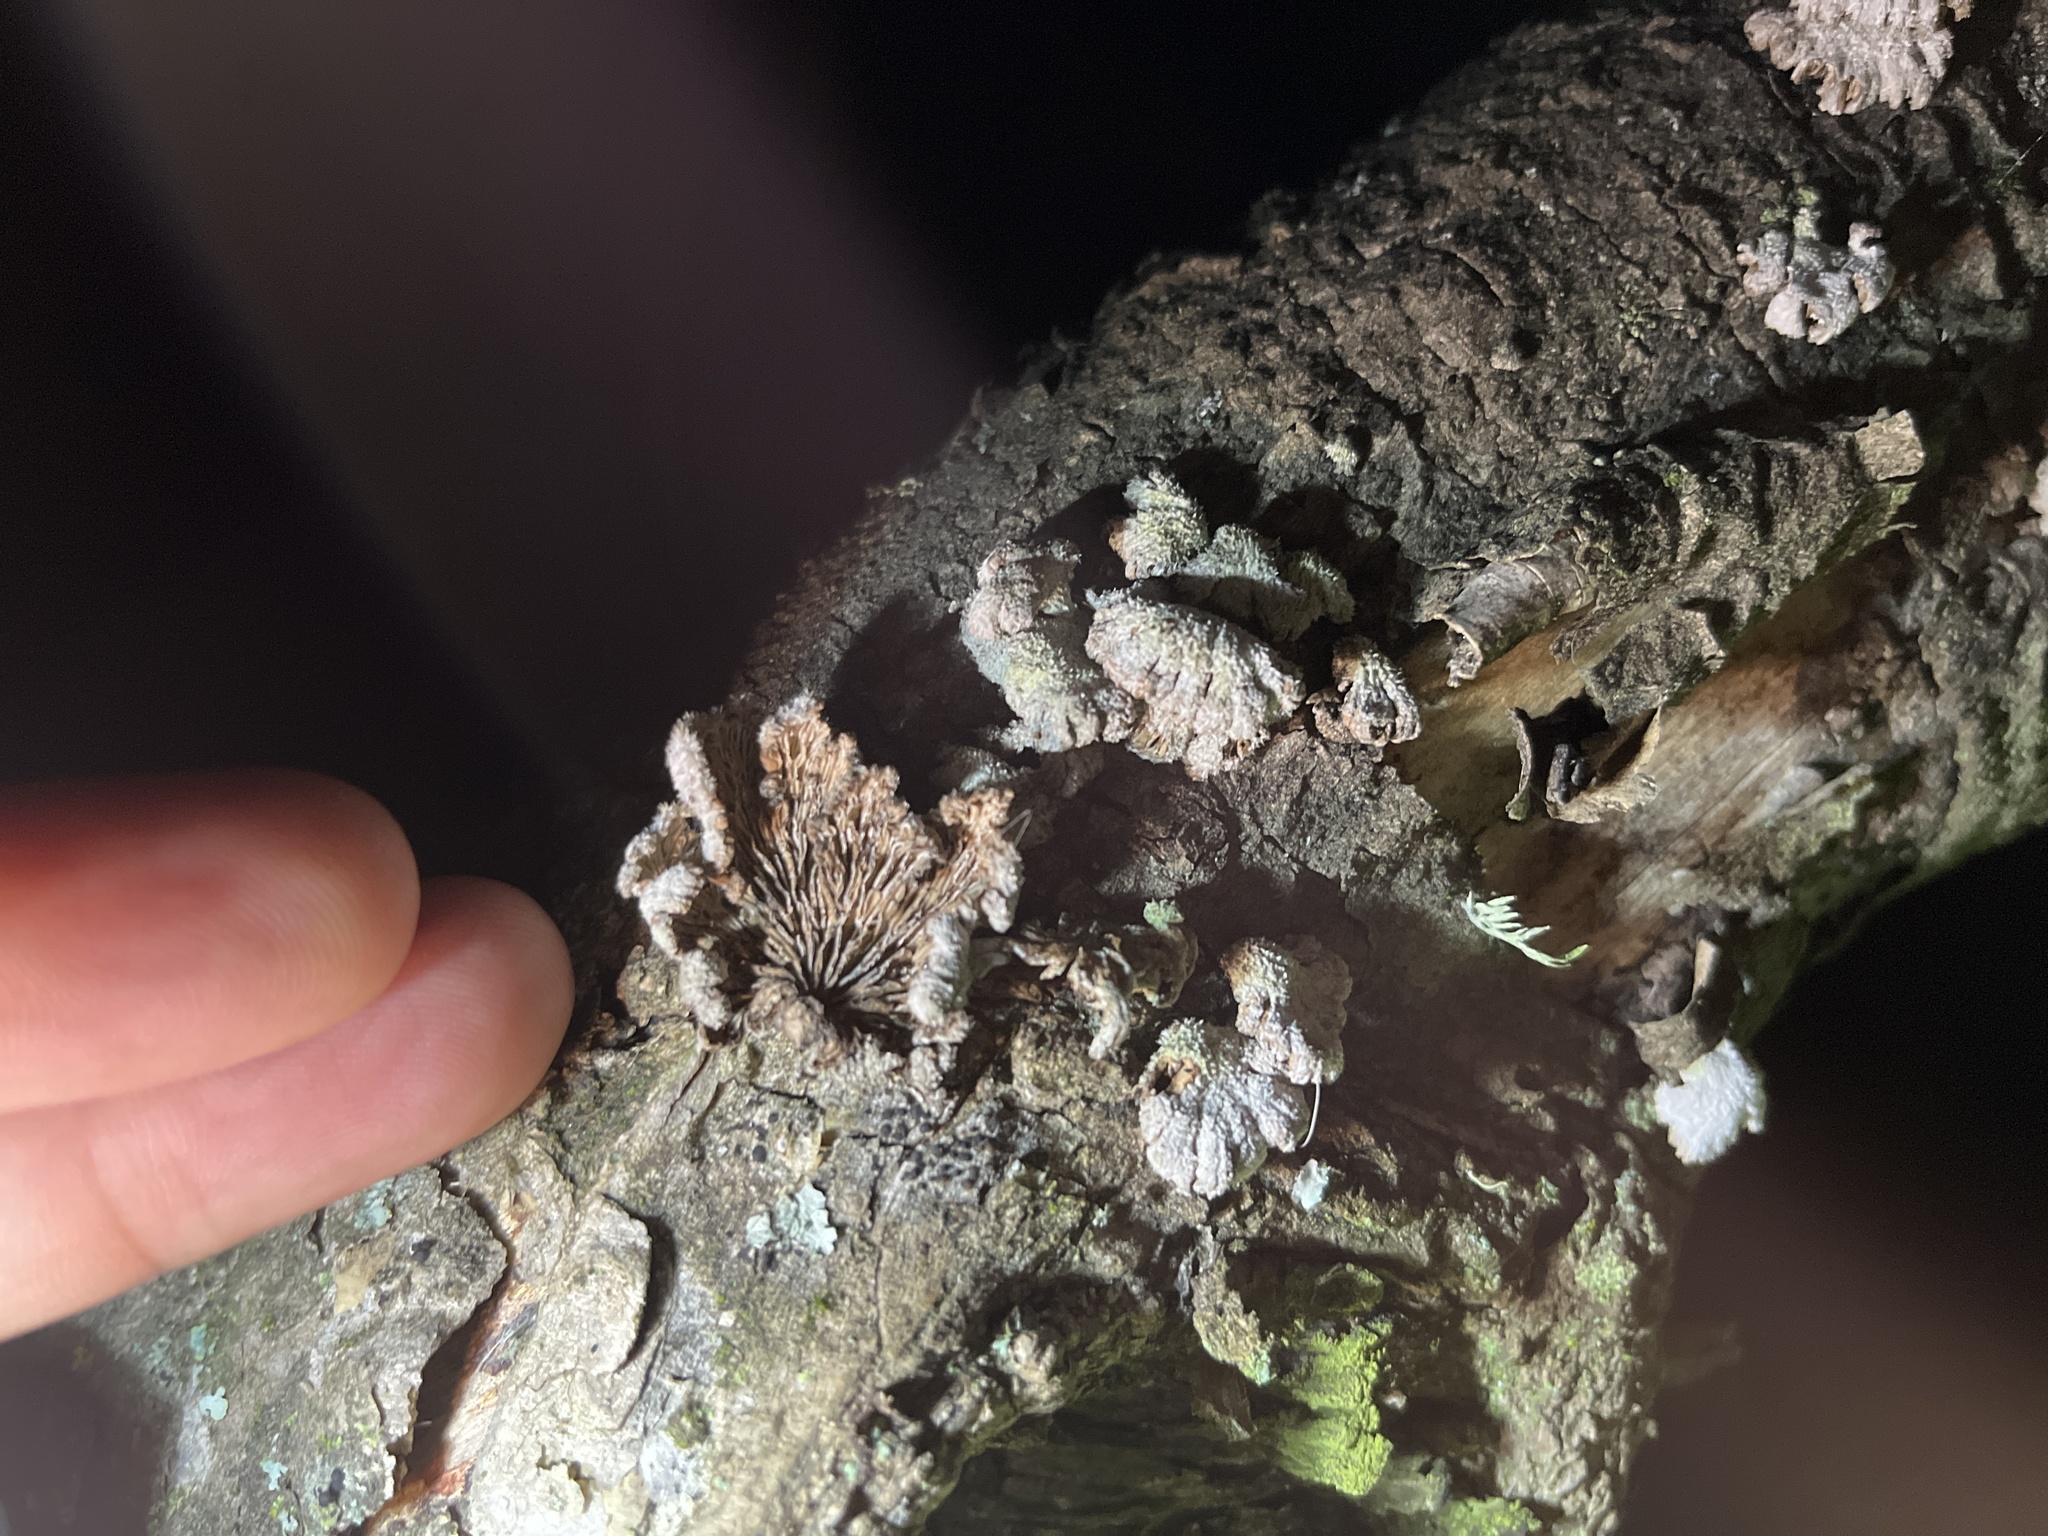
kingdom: Fungi
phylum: Basidiomycota
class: Agaricomycetes
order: Agaricales
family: Schizophyllaceae
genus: Schizophyllum
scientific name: Schizophyllum commune
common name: Common porecrust
